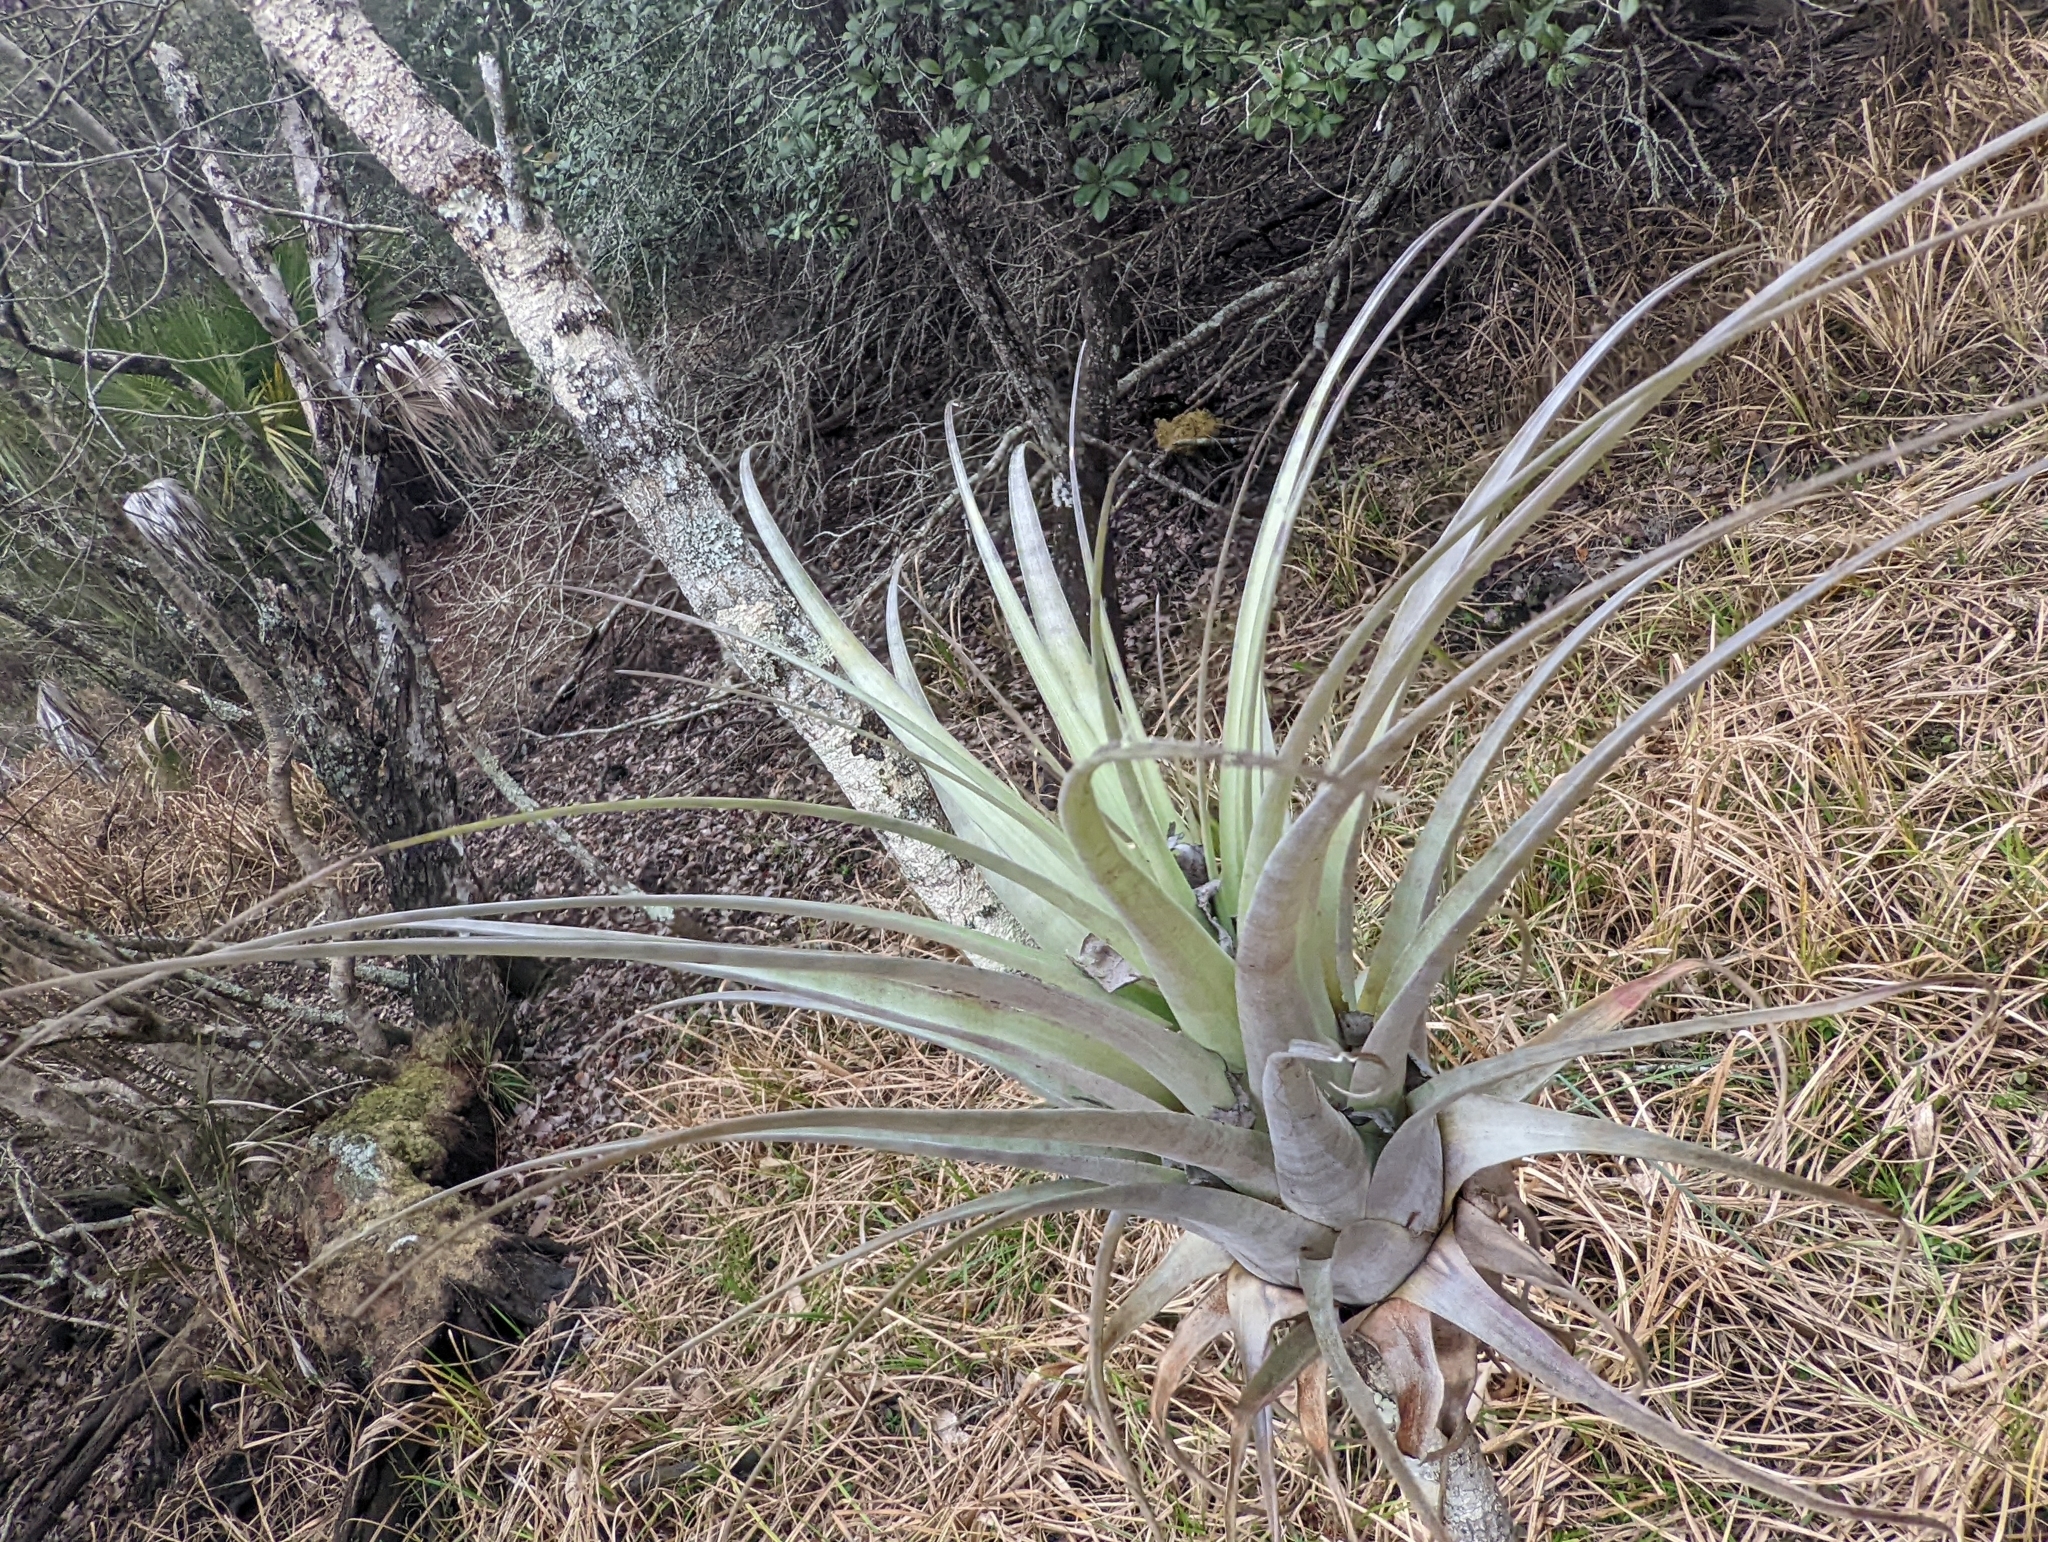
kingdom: Plantae
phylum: Tracheophyta
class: Liliopsida
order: Poales
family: Bromeliaceae
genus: Tillandsia
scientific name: Tillandsia utriculata
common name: Wild pine
